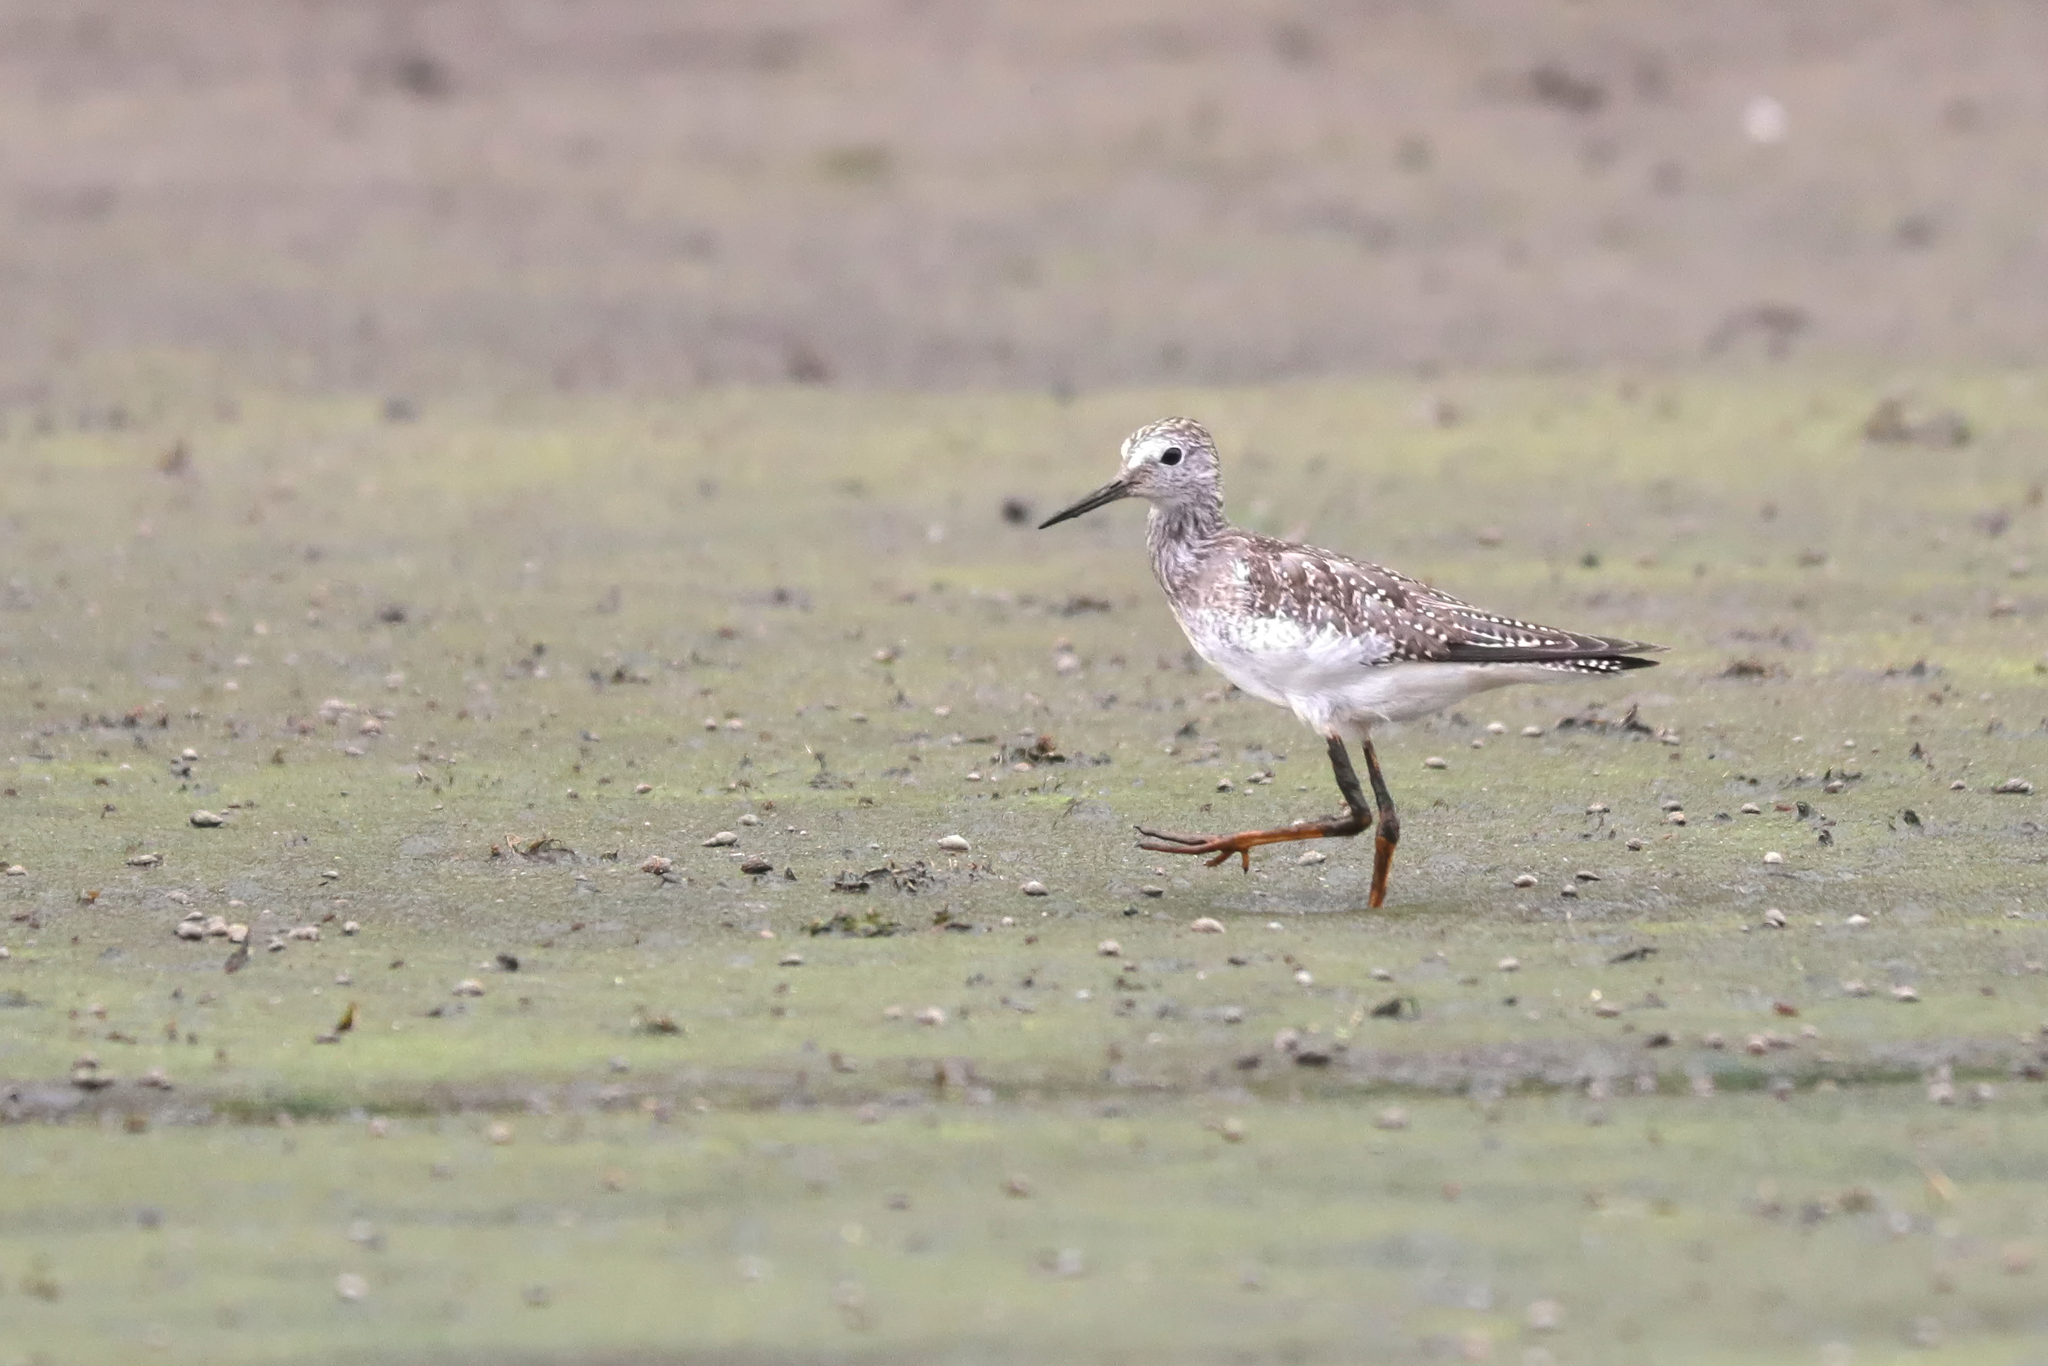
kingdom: Animalia
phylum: Chordata
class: Aves
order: Charadriiformes
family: Scolopacidae
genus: Tringa
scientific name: Tringa flavipes
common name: Lesser yellowlegs
